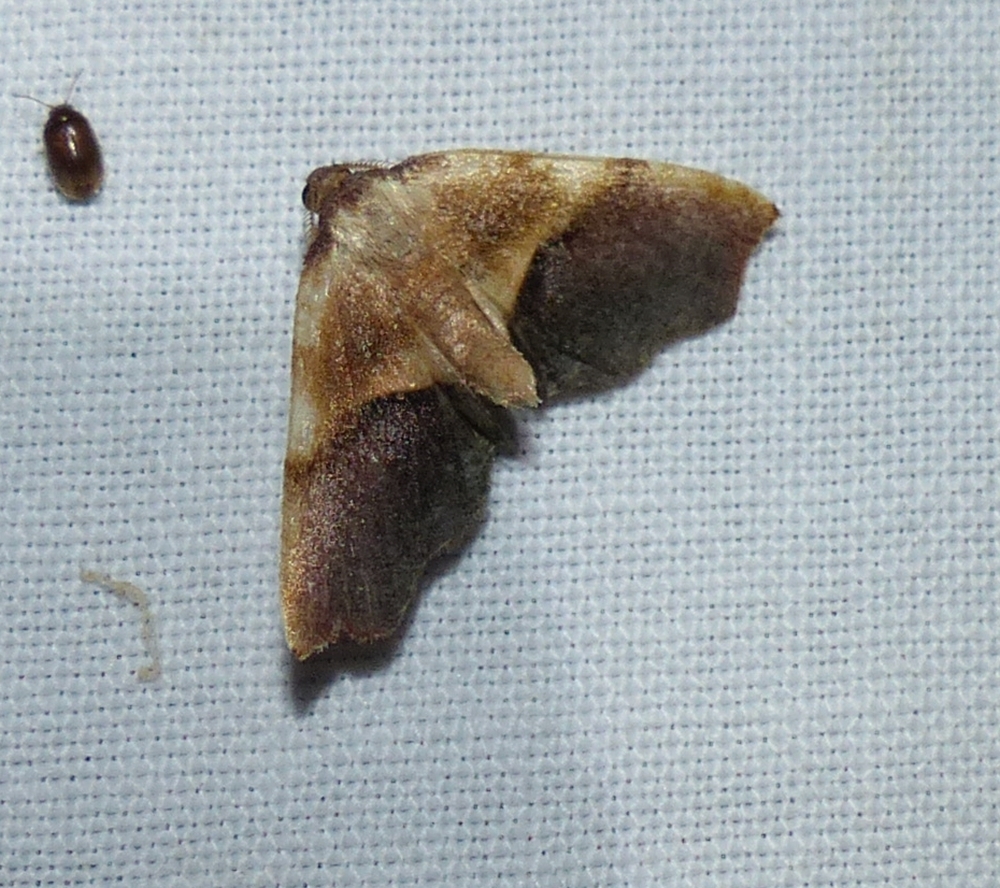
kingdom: Animalia
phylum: Arthropoda
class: Insecta
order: Lepidoptera
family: Geometridae
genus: Plagodis
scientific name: Plagodis kuetzingi
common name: Purple plagodis
